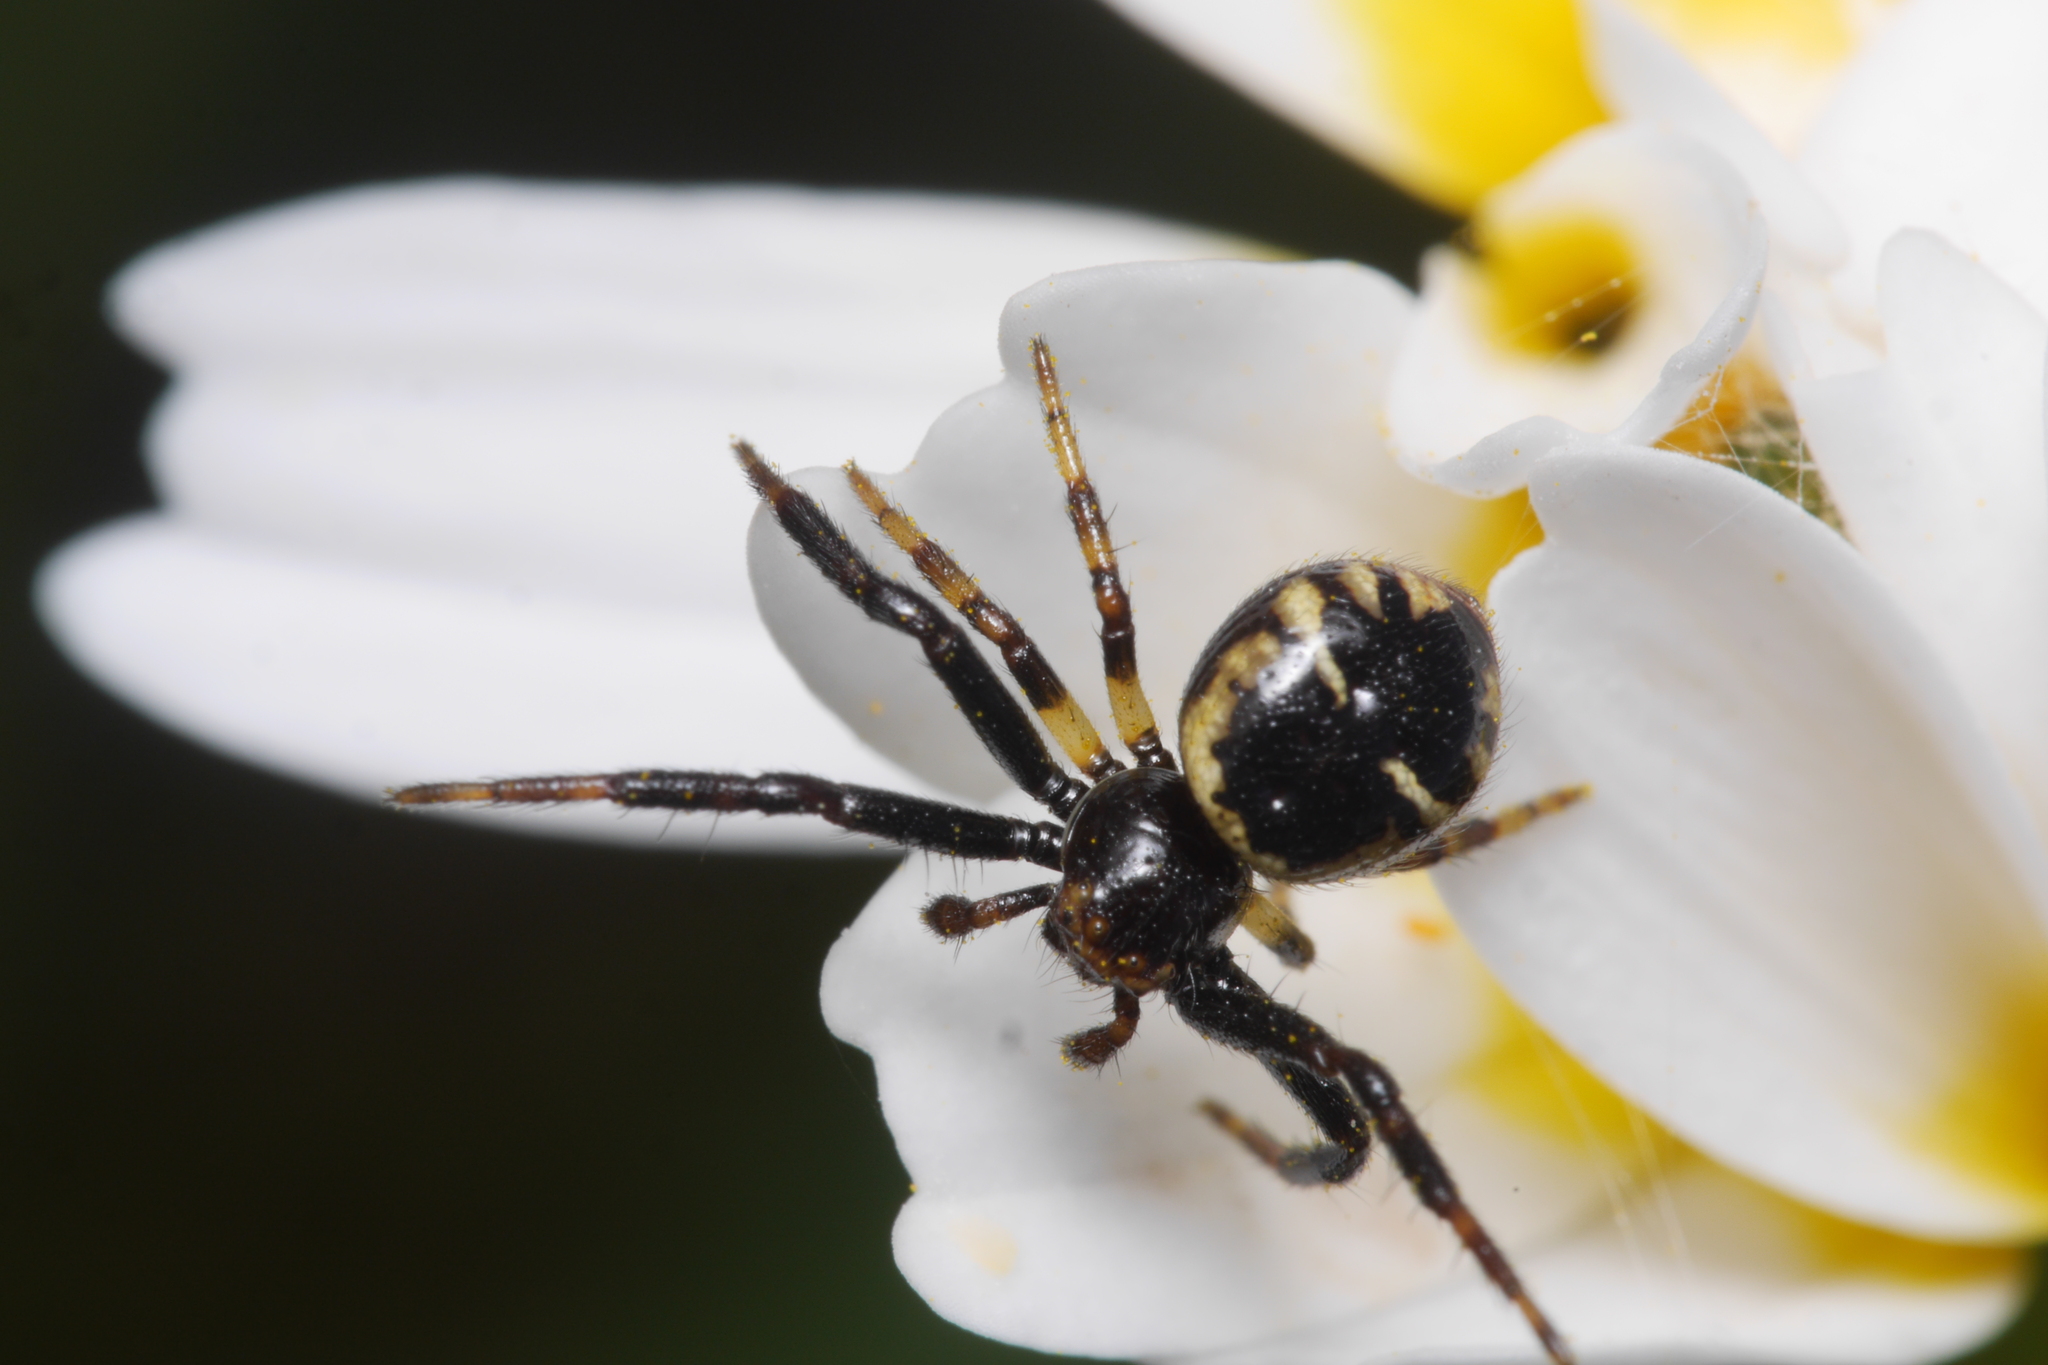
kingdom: Animalia
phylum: Arthropoda
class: Arachnida
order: Araneae
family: Thomisidae
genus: Synema
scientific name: Synema globosum
